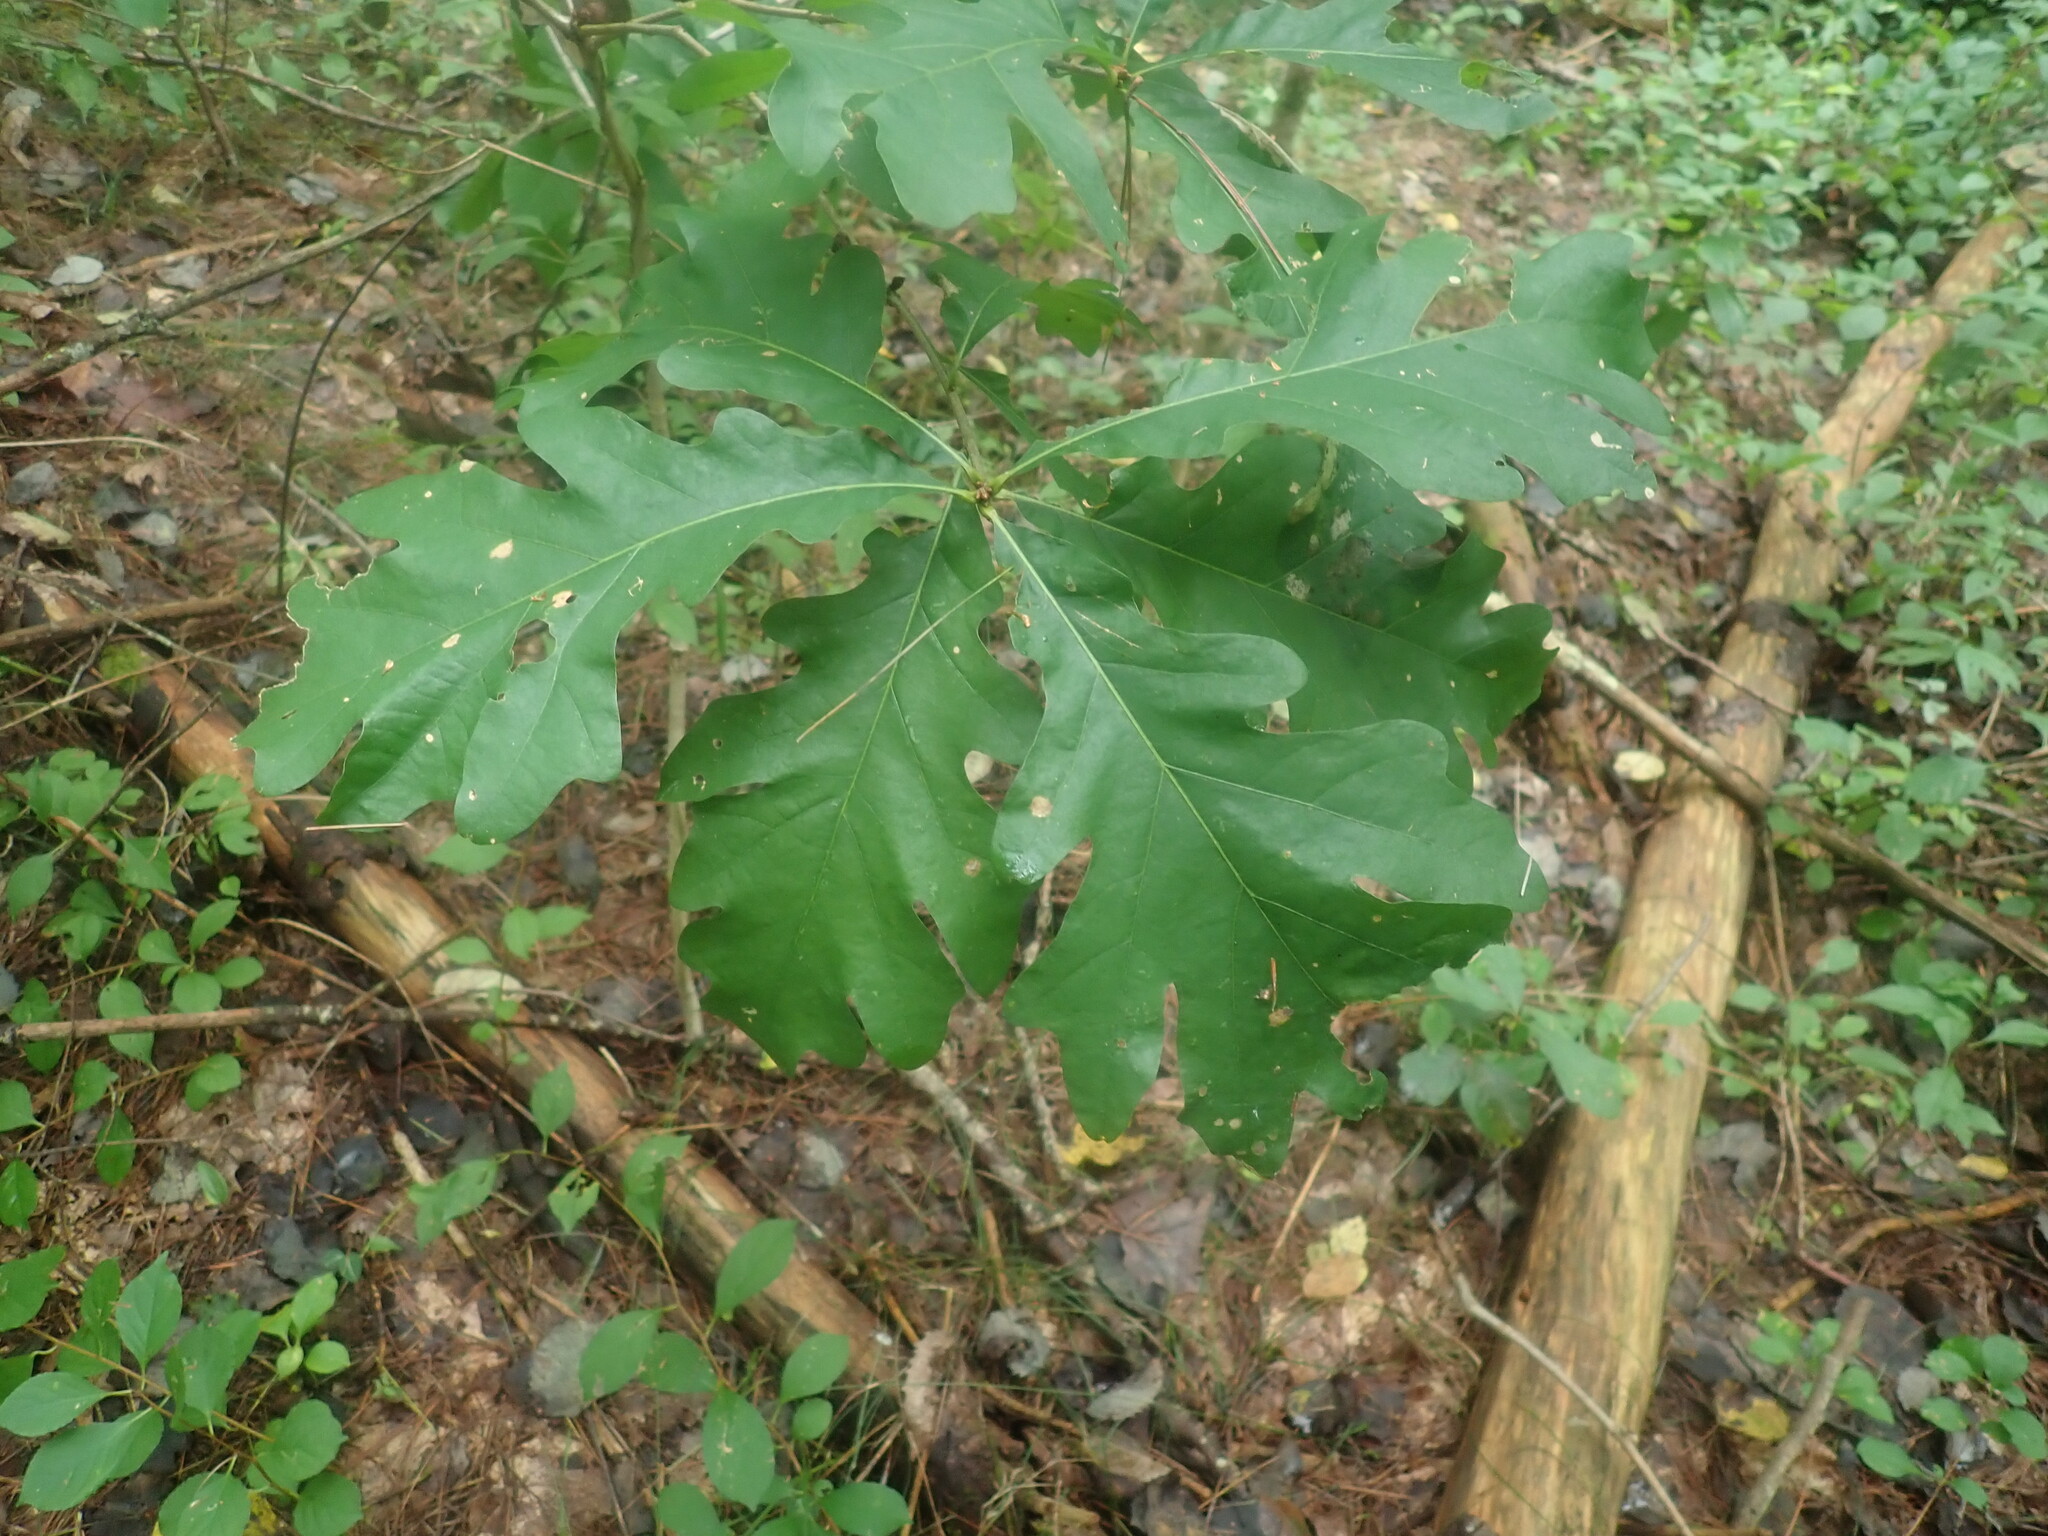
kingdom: Plantae
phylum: Tracheophyta
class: Magnoliopsida
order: Fagales
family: Fagaceae
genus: Quercus
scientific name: Quercus alba
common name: White oak
